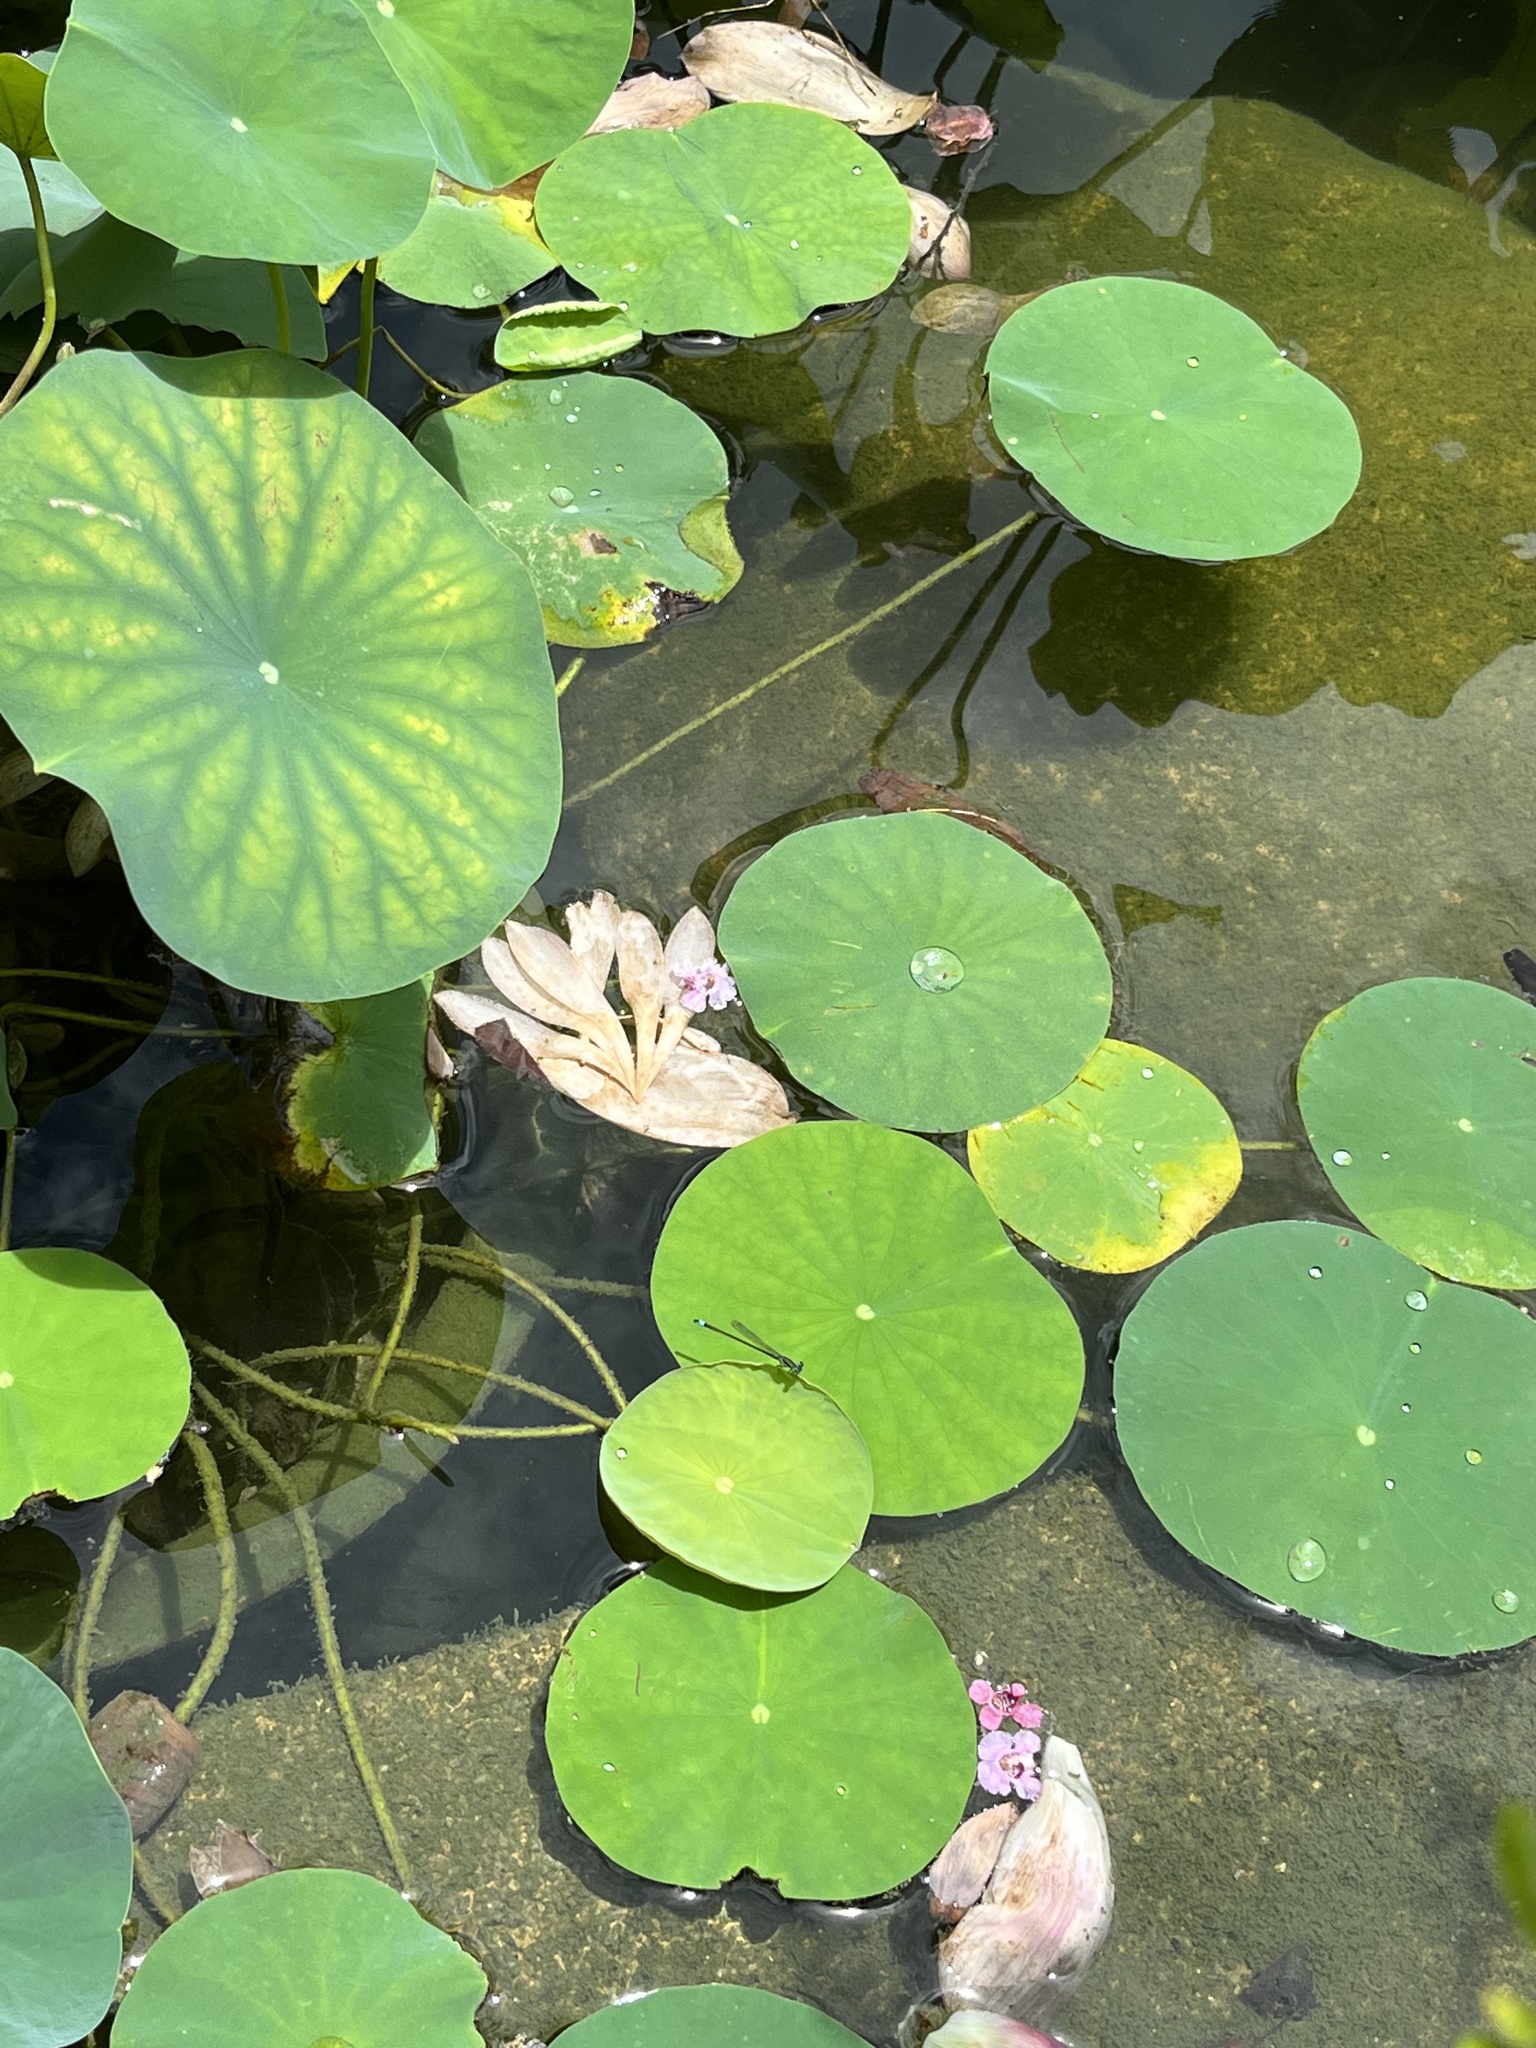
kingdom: Animalia
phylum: Arthropoda
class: Insecta
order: Odonata
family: Coenagrionidae
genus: Ischnura
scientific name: Ischnura senegalensis
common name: Tropical bluetail
